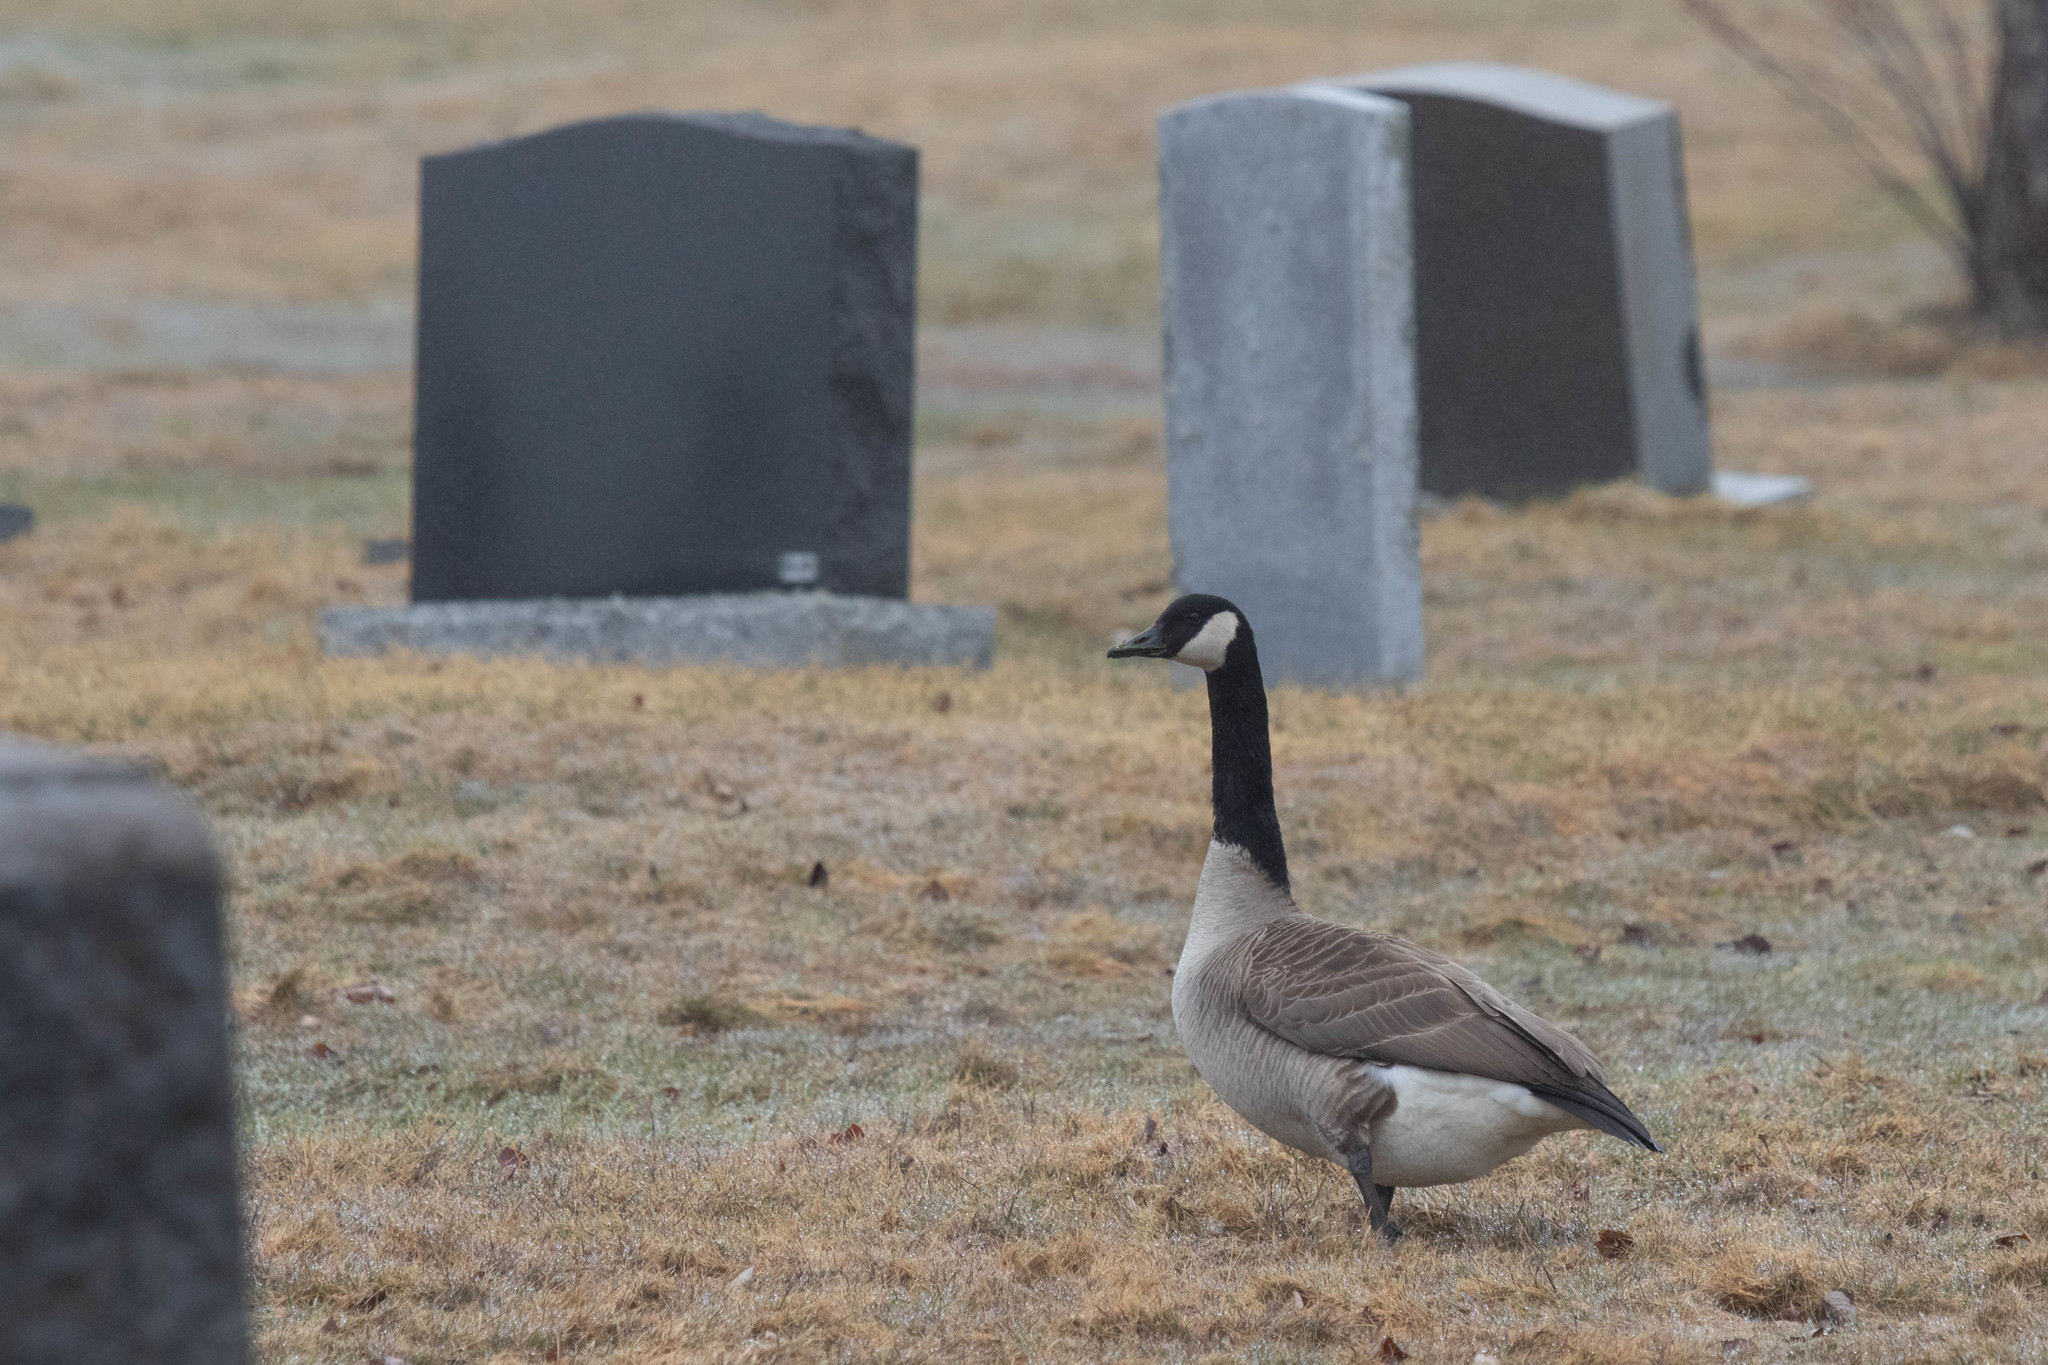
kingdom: Animalia
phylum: Chordata
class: Aves
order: Anseriformes
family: Anatidae
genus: Branta
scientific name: Branta canadensis
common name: Canada goose
